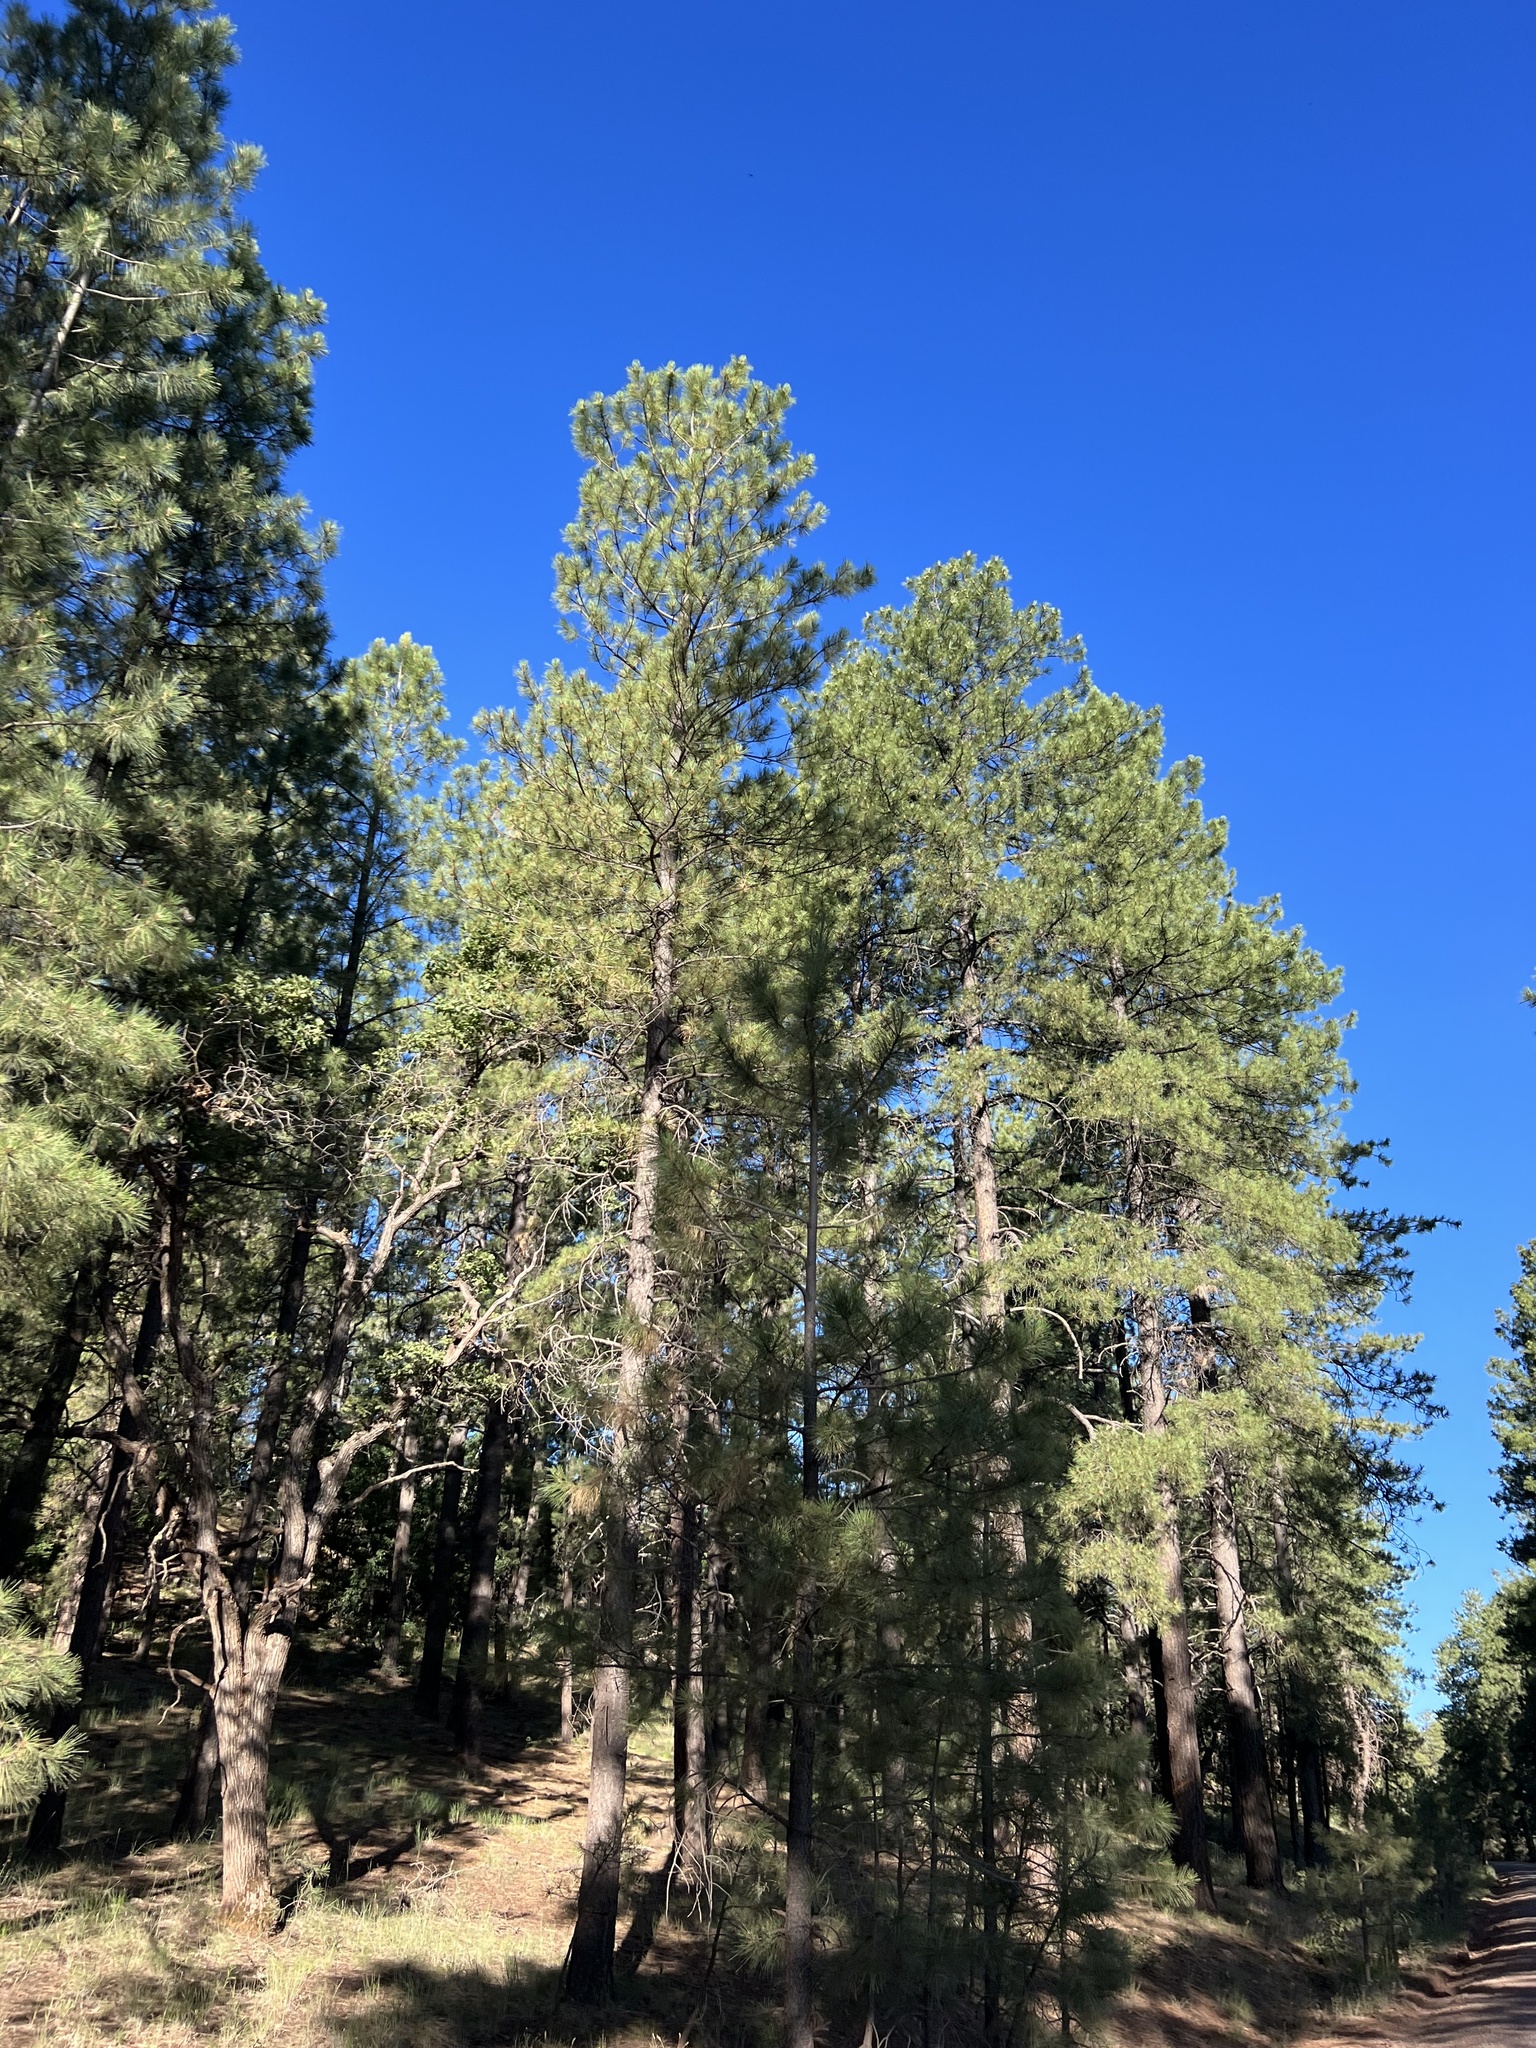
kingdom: Plantae
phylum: Tracheophyta
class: Pinopsida
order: Pinales
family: Pinaceae
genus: Pinus
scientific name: Pinus ponderosa
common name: Western yellow-pine
